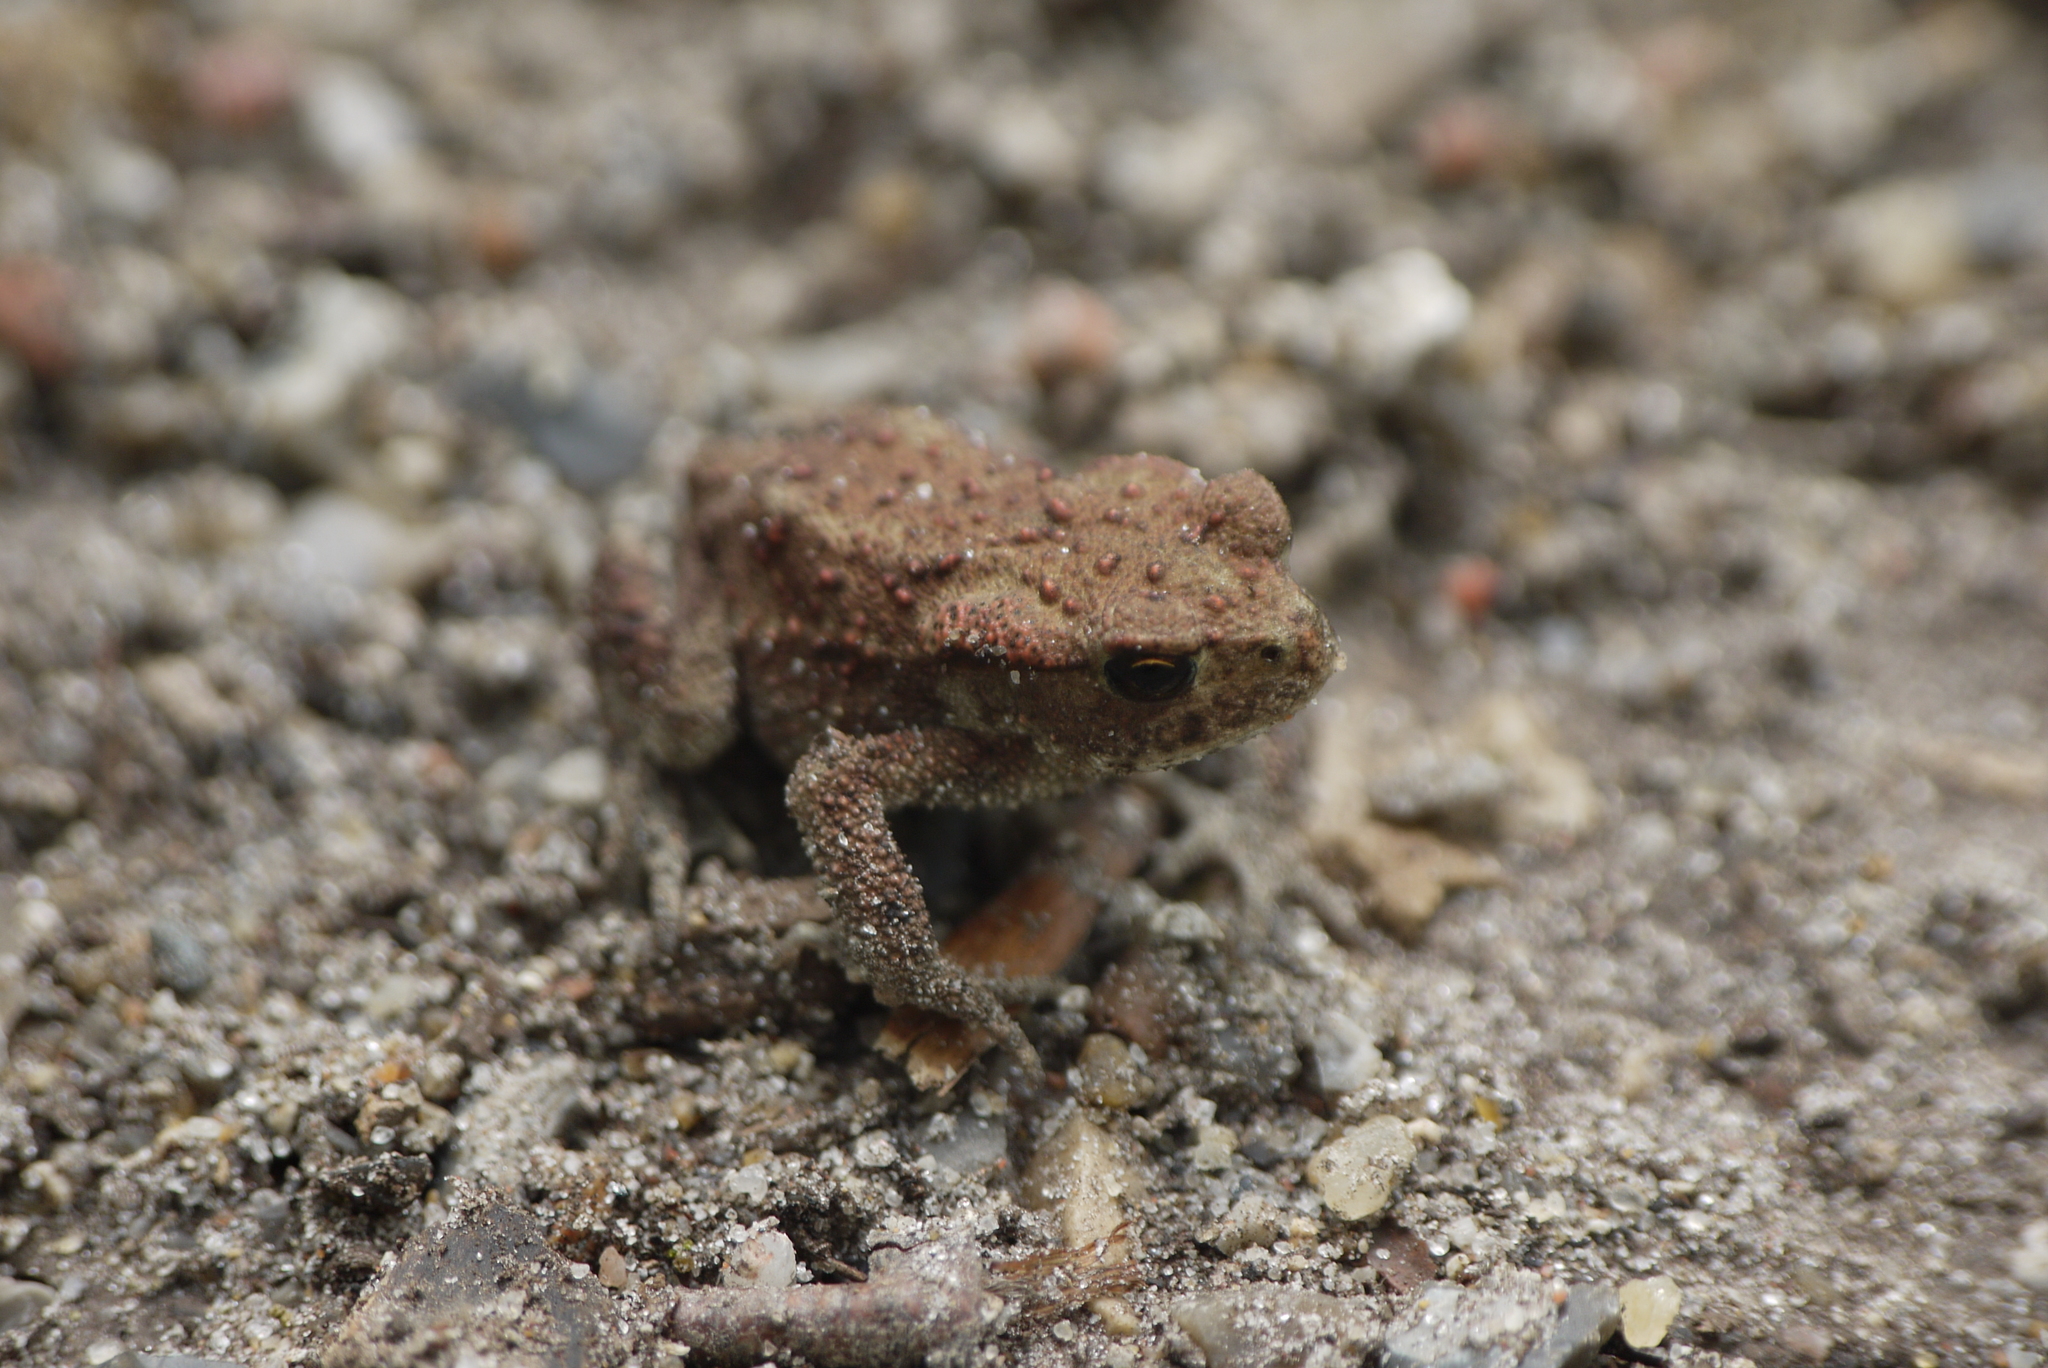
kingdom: Animalia
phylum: Chordata
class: Amphibia
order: Anura
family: Bufonidae
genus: Bufo
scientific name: Bufo bufo
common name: Common toad
